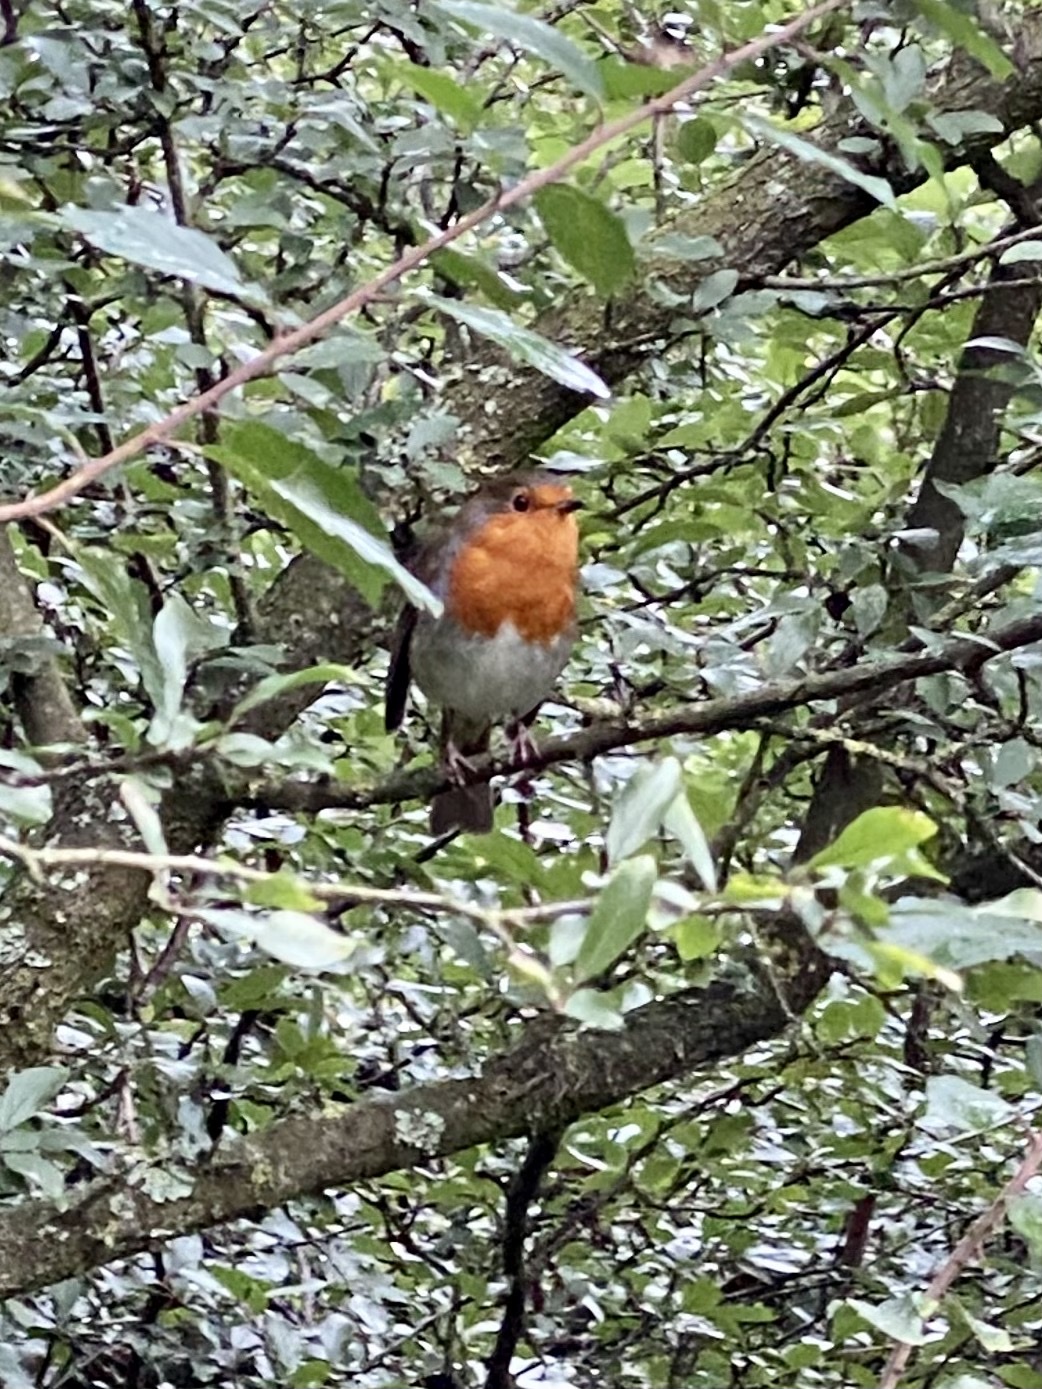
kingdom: Animalia
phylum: Chordata
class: Aves
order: Passeriformes
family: Muscicapidae
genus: Erithacus
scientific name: Erithacus rubecula
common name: European robin
